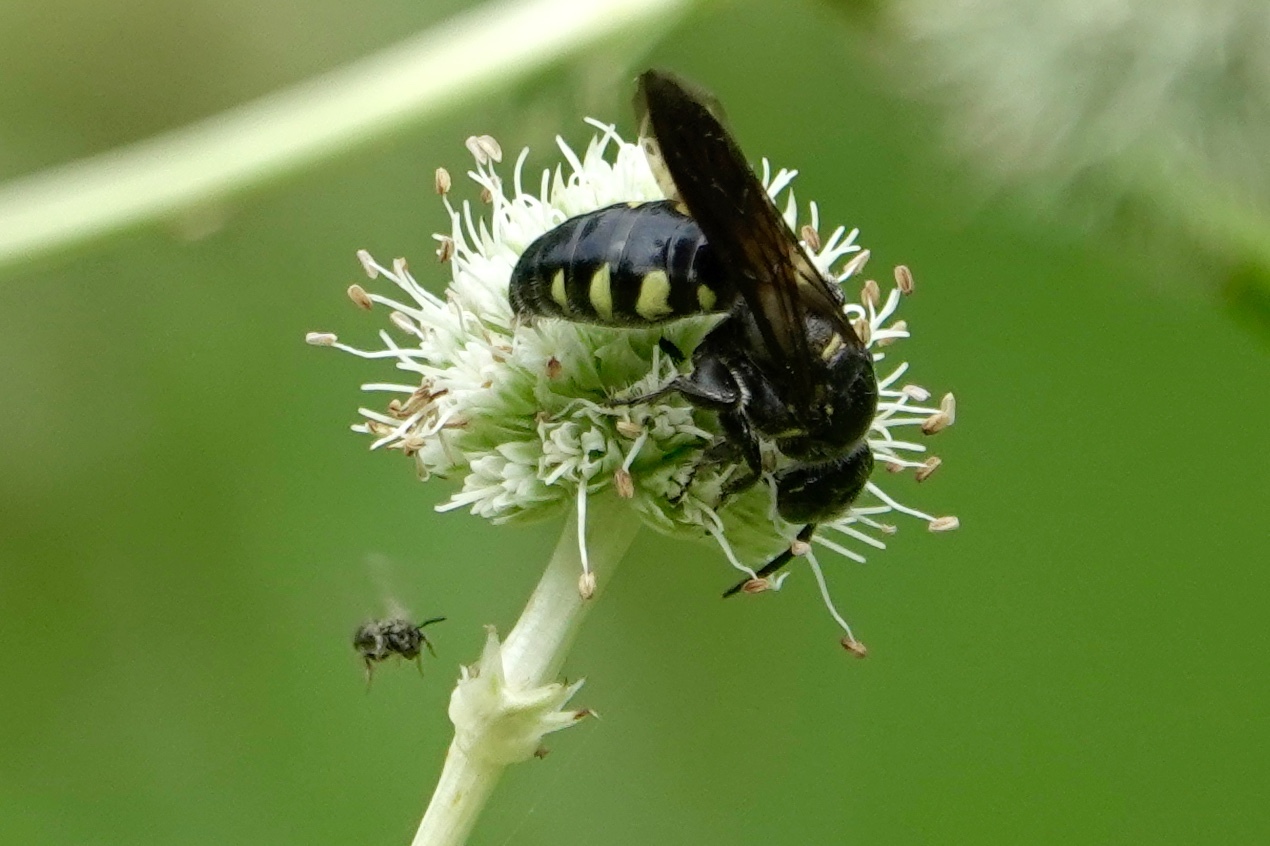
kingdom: Animalia
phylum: Arthropoda
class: Insecta
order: Hymenoptera
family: Tiphiidae
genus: Myzinum
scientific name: Myzinum obscurum
